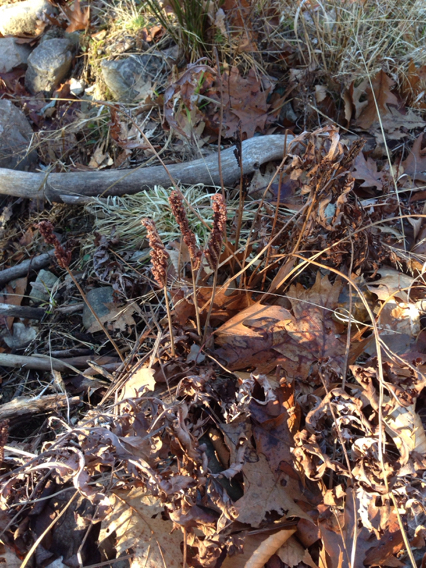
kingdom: Plantae
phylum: Tracheophyta
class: Polypodiopsida
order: Polypodiales
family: Onocleaceae
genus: Onoclea
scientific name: Onoclea sensibilis
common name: Sensitive fern
